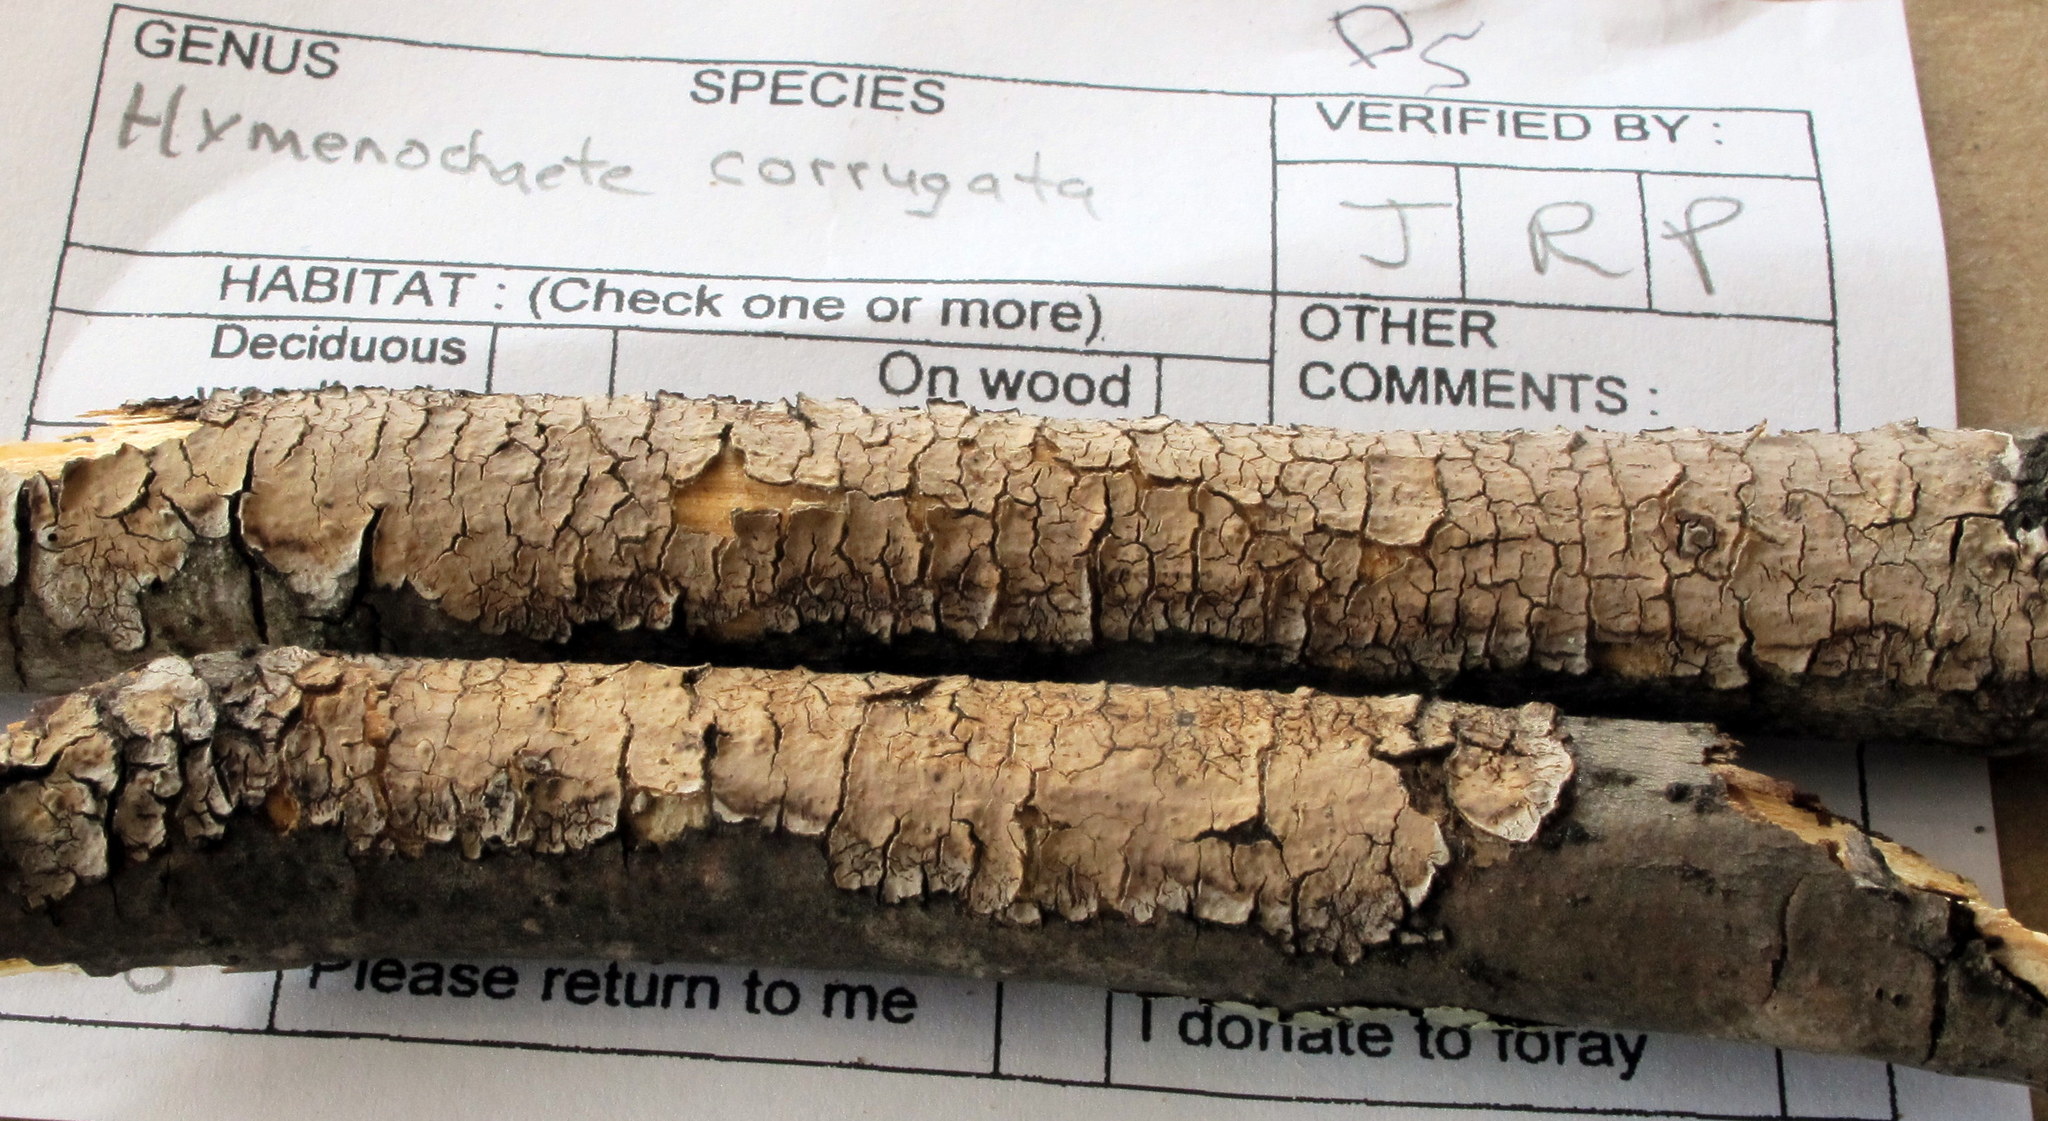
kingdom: Fungi
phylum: Basidiomycota
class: Agaricomycetes
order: Hymenochaetales
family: Hymenochaetaceae
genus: Hydnoporia
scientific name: Hydnoporia diffissa
